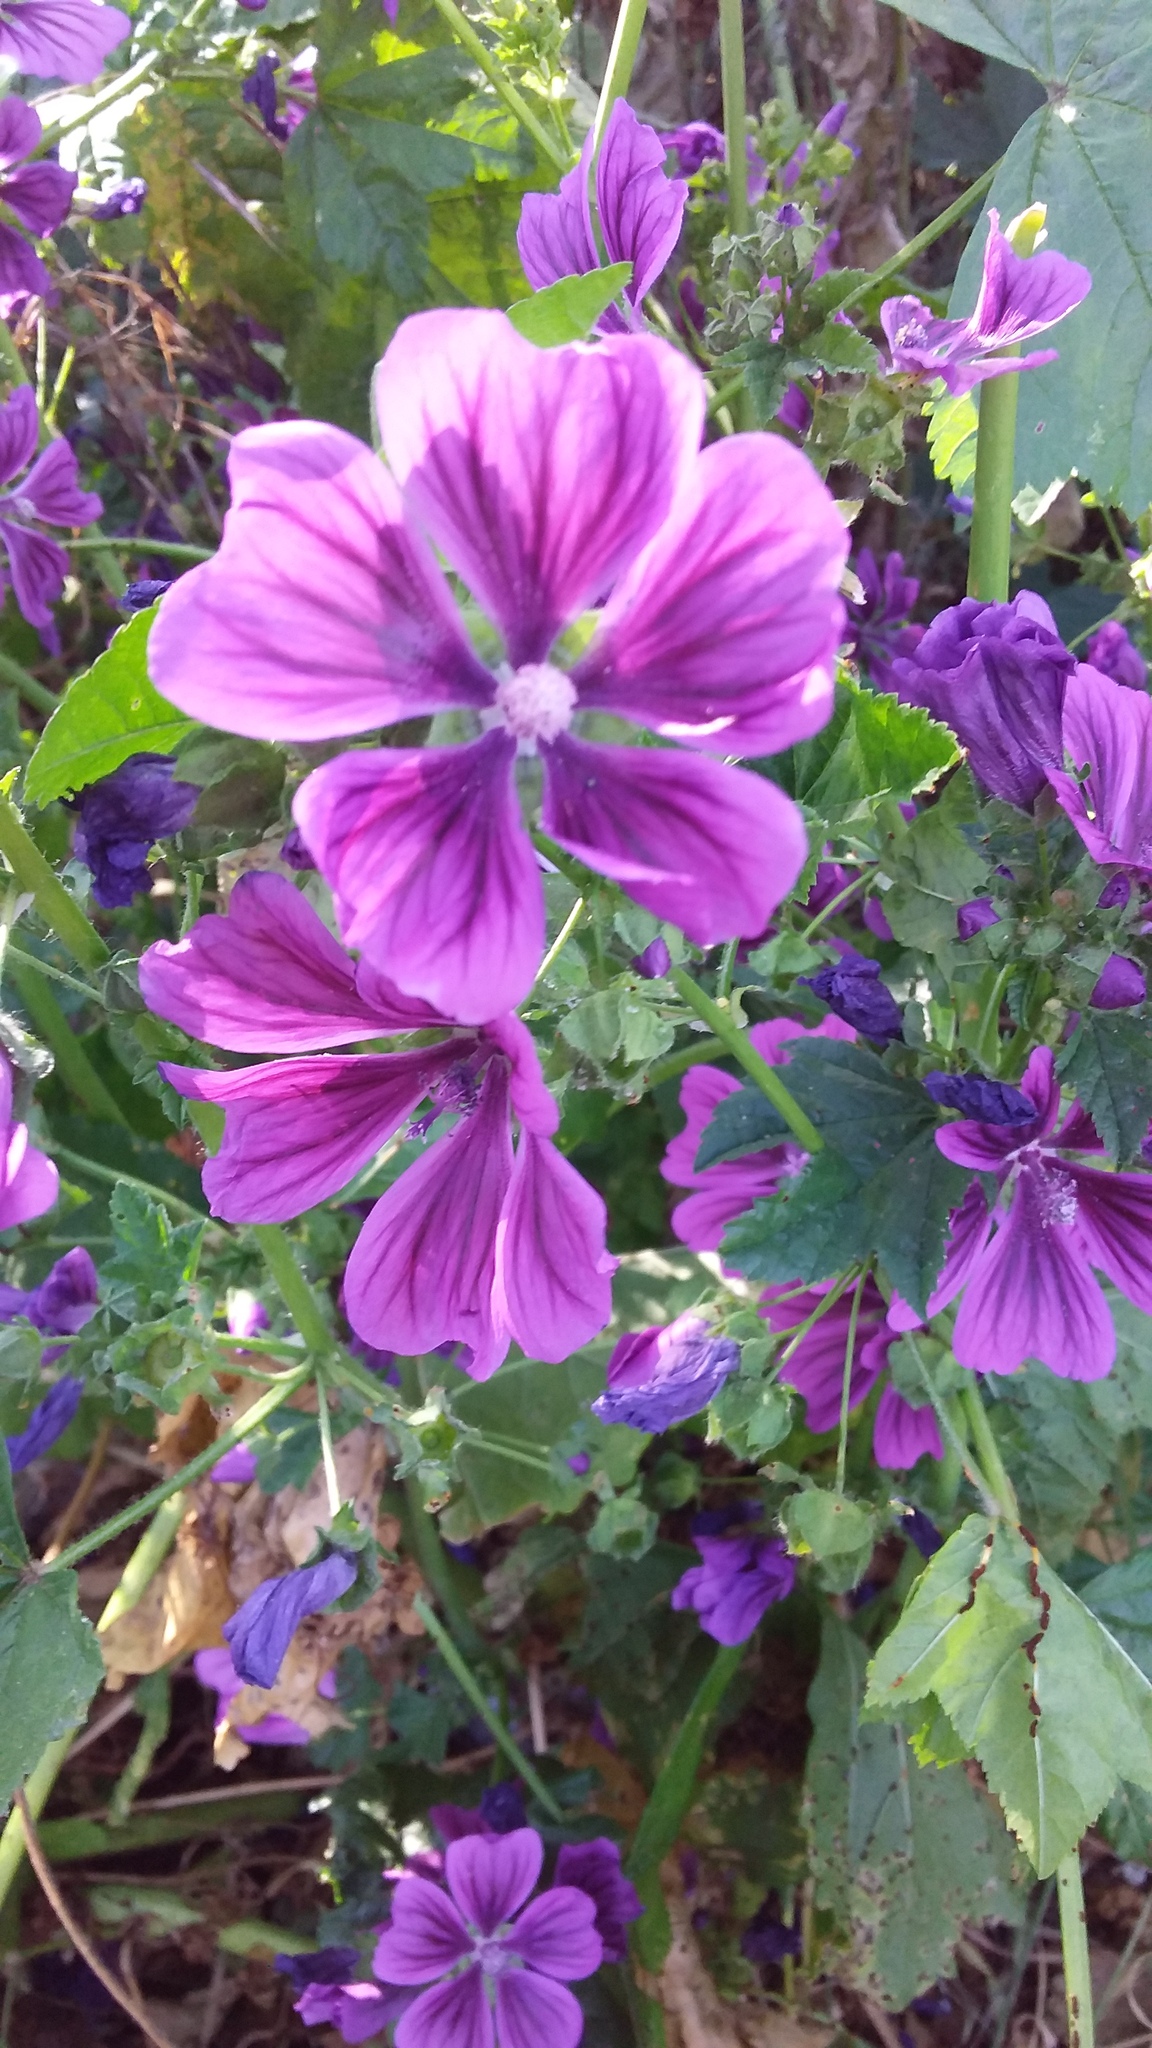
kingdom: Plantae
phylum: Tracheophyta
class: Magnoliopsida
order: Malvales
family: Malvaceae
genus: Malva
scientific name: Malva sylvestris
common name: Common mallow
